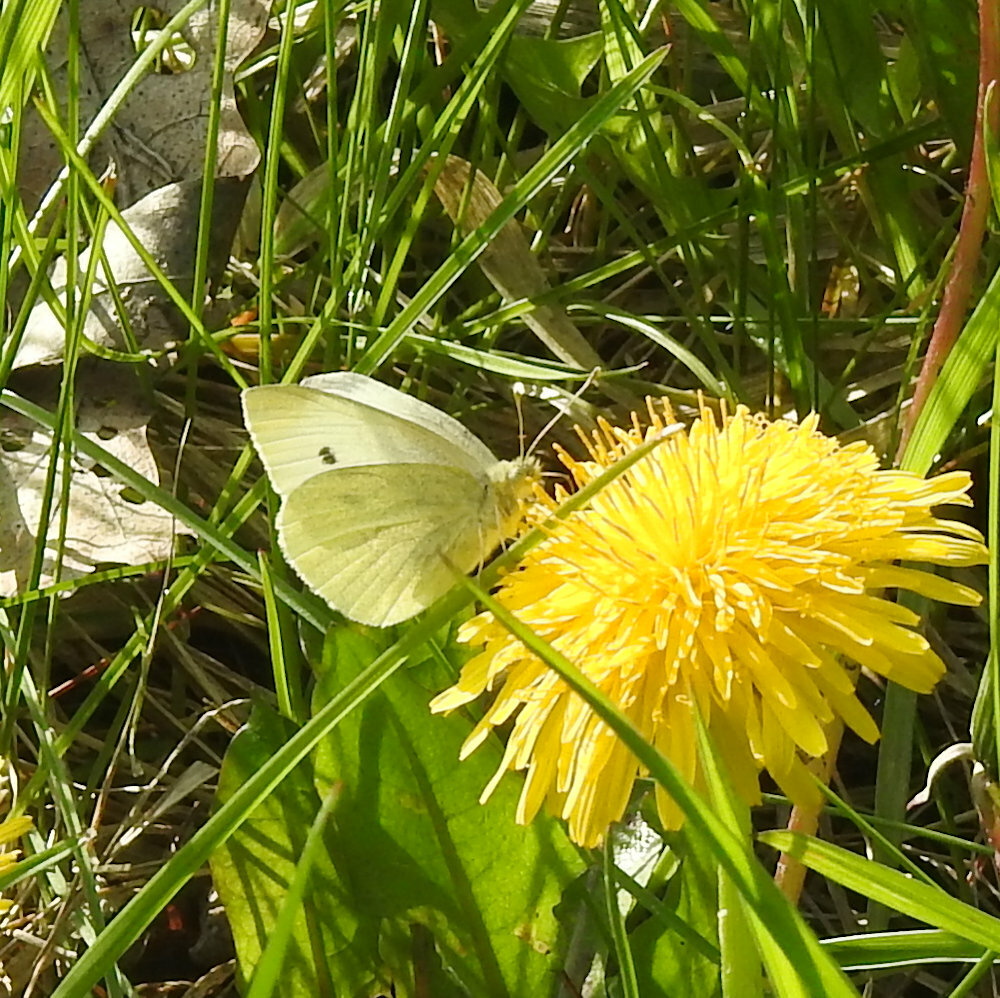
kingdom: Animalia
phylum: Arthropoda
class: Insecta
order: Lepidoptera
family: Pieridae
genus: Pieris
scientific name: Pieris rapae
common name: Small white
